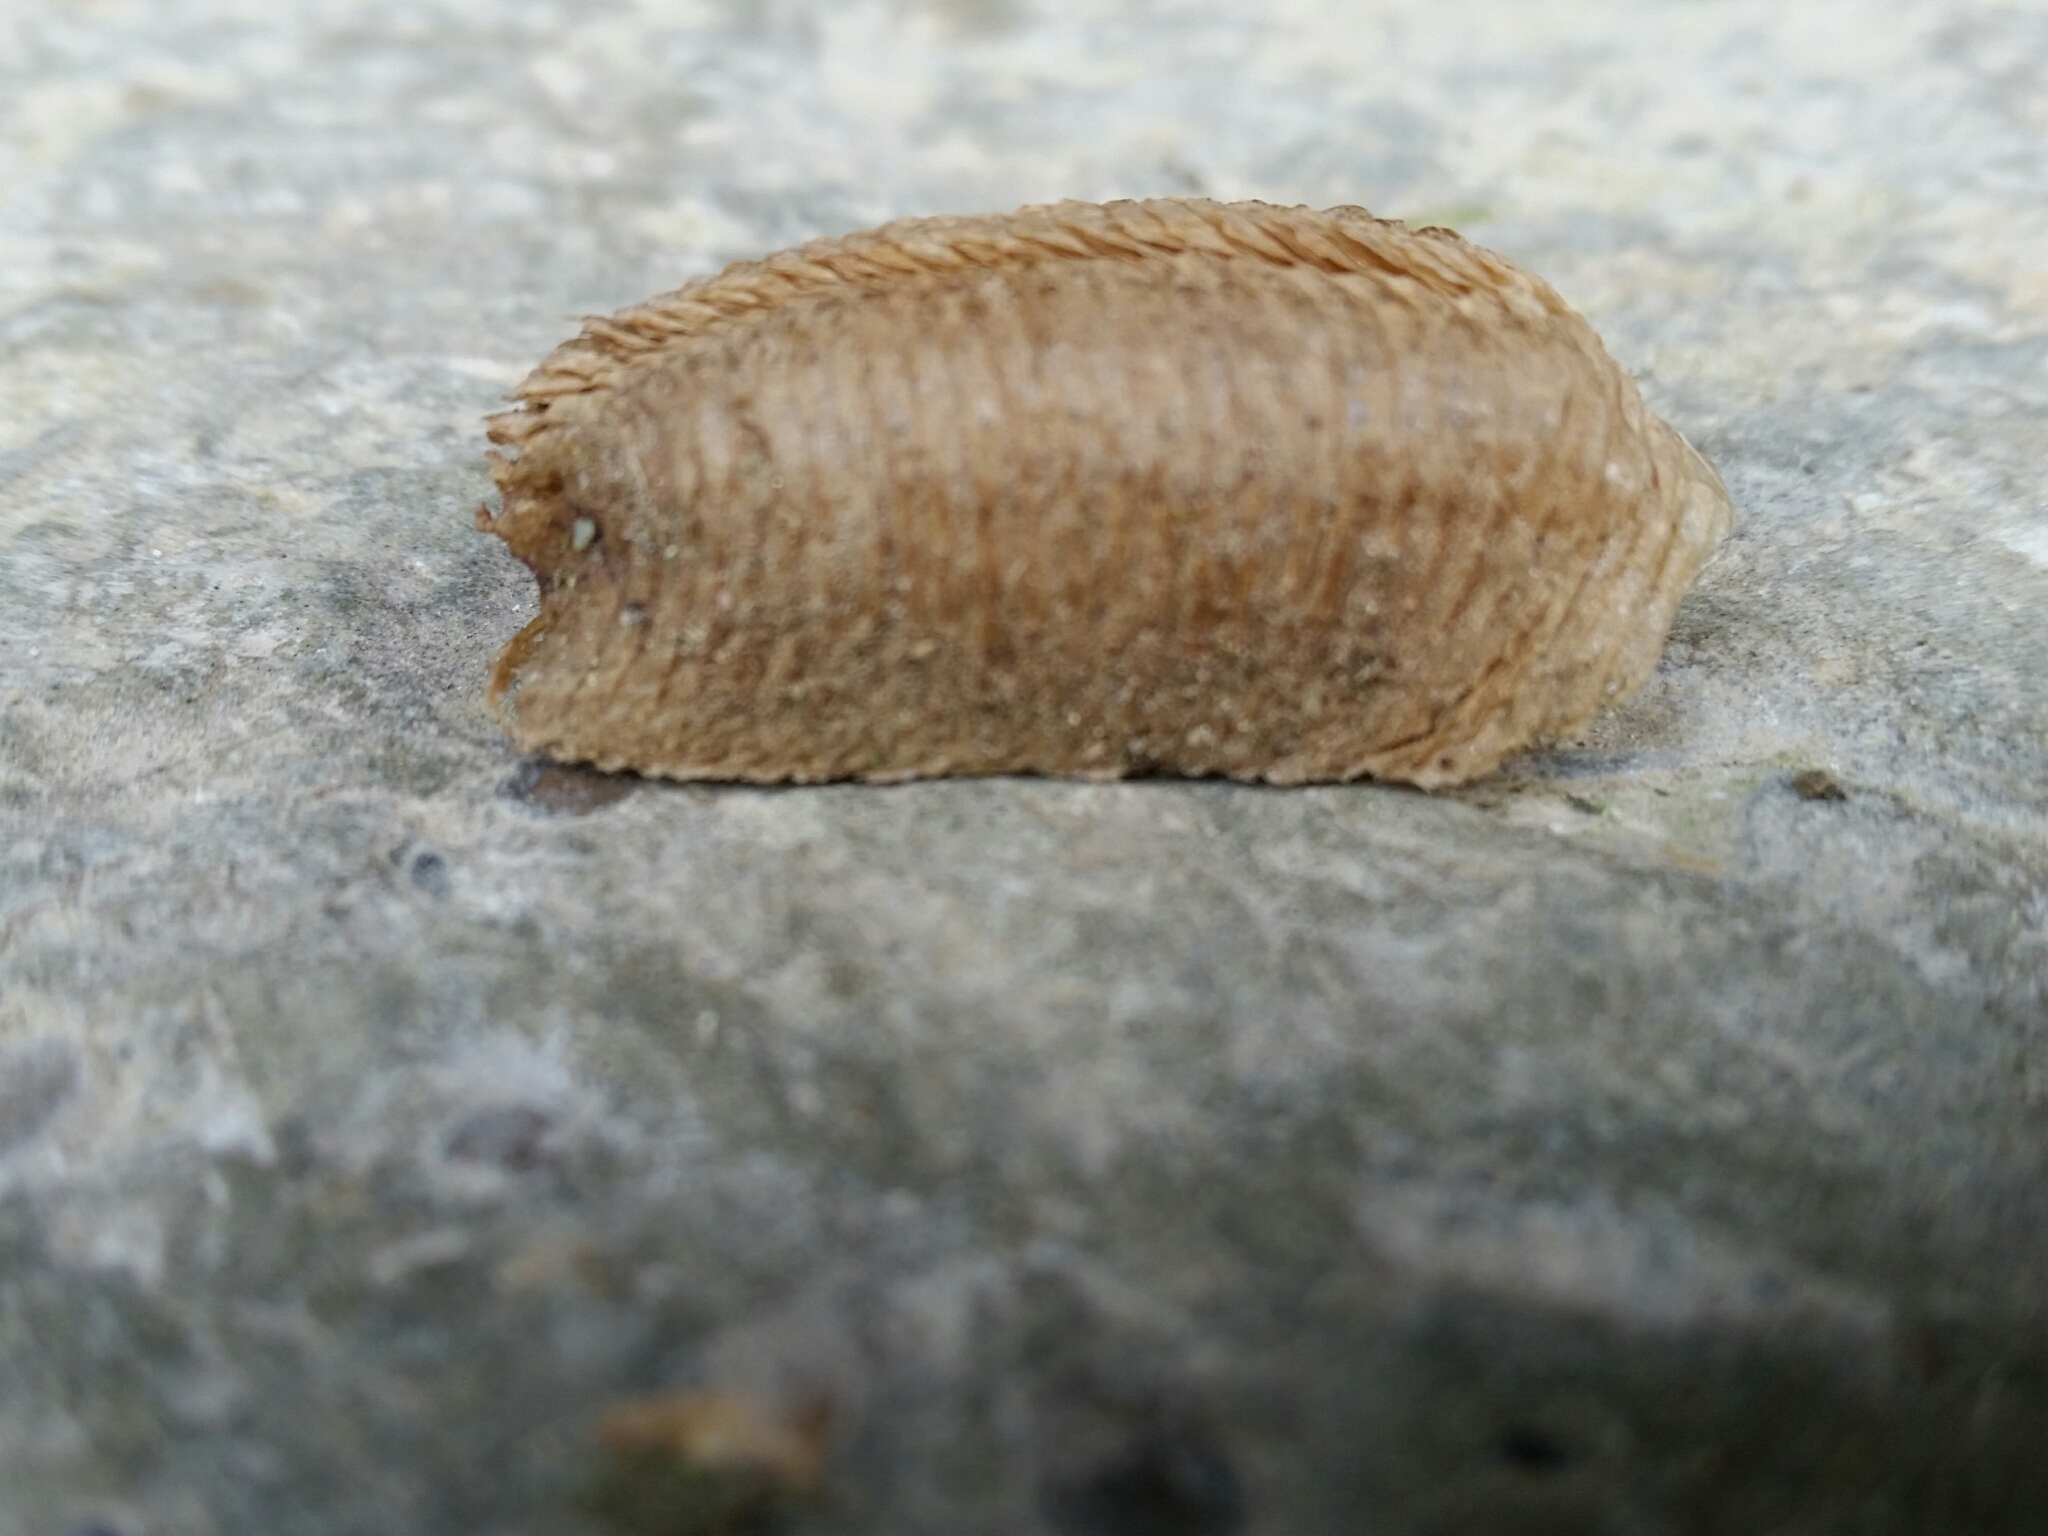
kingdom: Animalia
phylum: Arthropoda
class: Insecta
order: Mantodea
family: Mantidae
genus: Mantis
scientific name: Mantis religiosa
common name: Praying mantis
